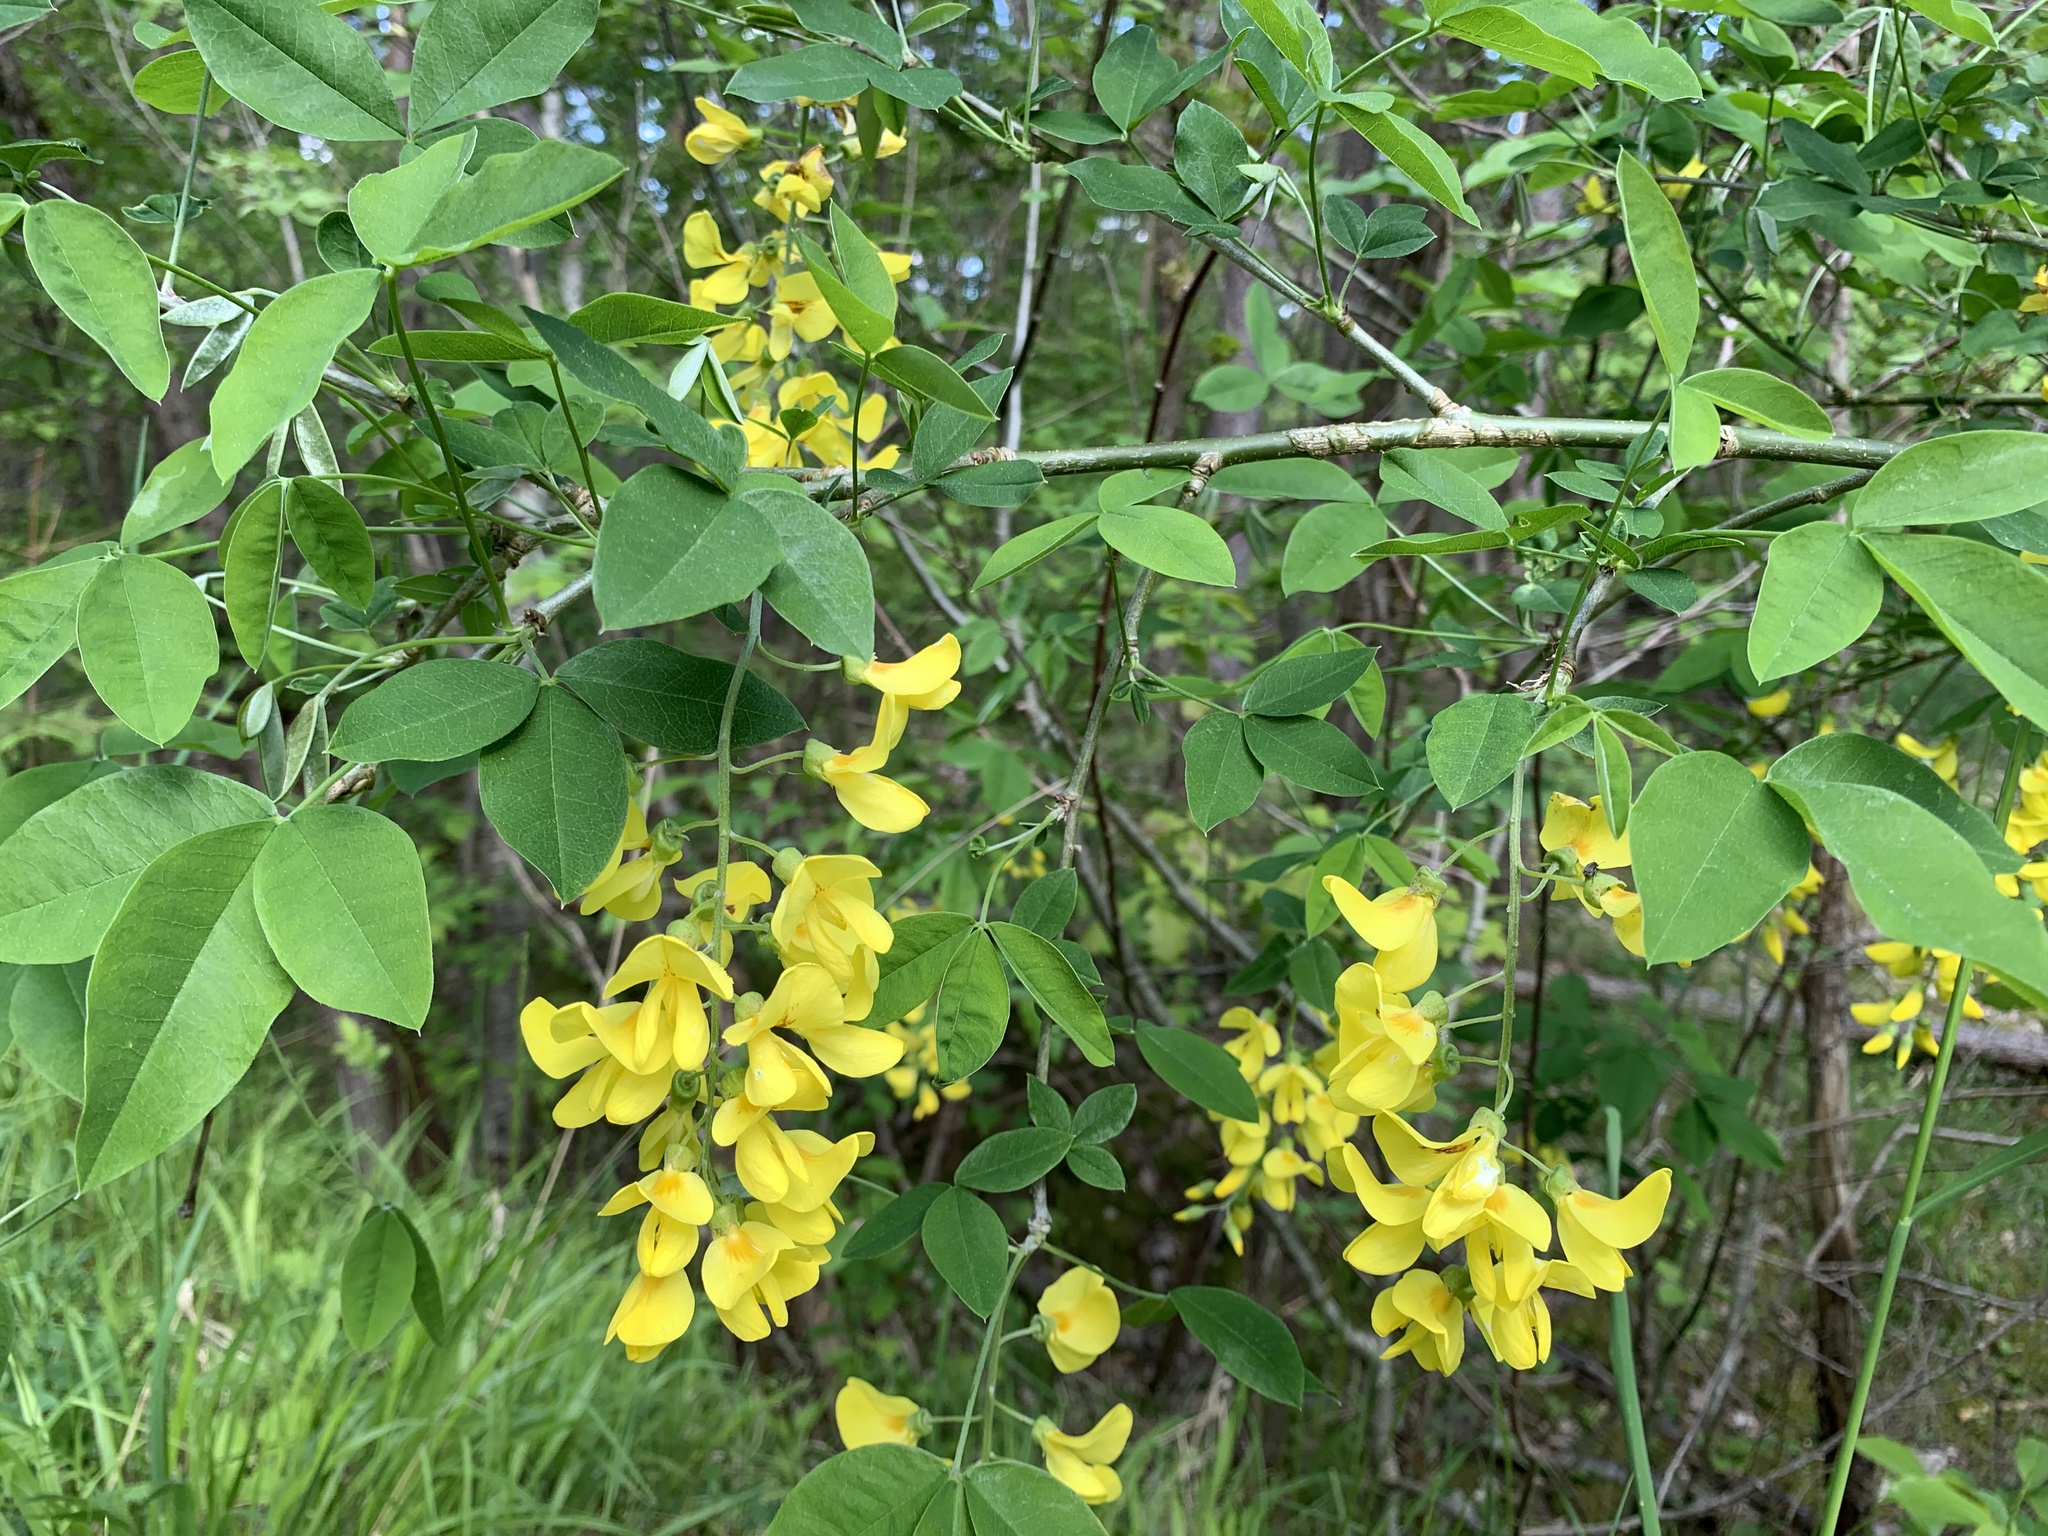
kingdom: Plantae
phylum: Tracheophyta
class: Magnoliopsida
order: Fabales
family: Fabaceae
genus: Laburnum
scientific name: Laburnum anagyroides
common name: Laburnum
